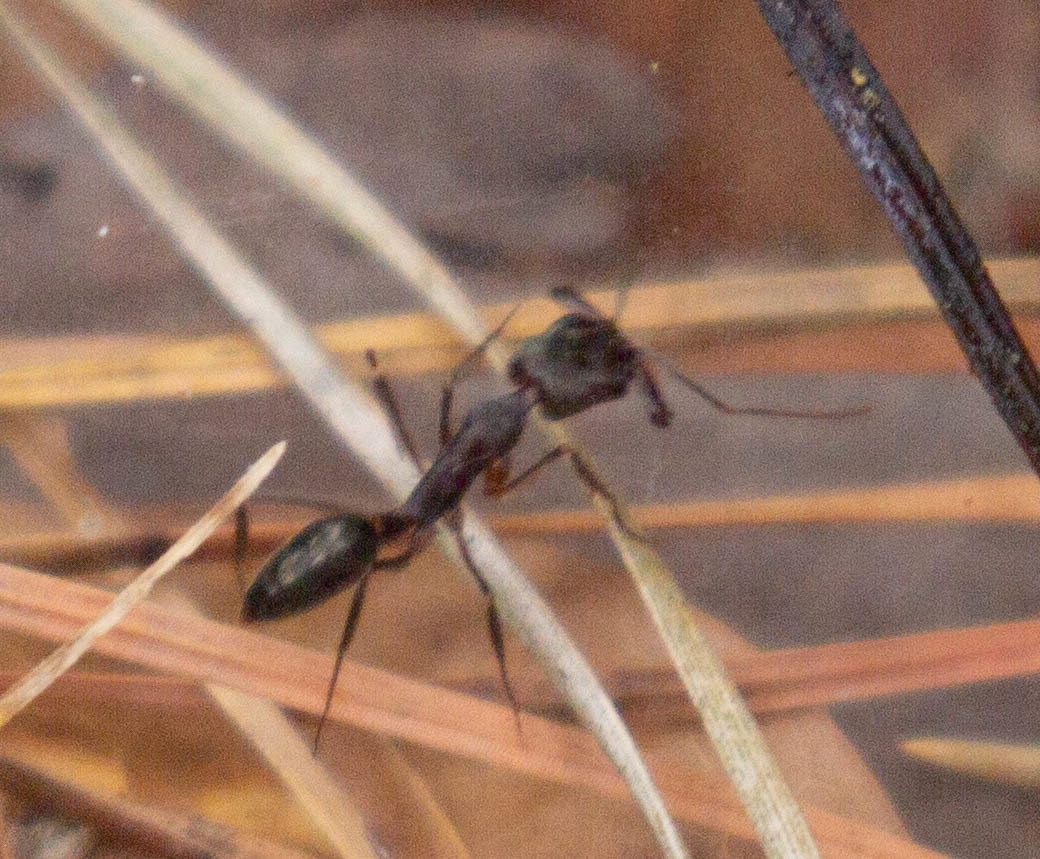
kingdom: Animalia
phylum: Arthropoda
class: Insecta
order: Hymenoptera
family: Formicidae
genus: Odontomachus
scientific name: Odontomachus haematodus
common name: Two-spined trapjaw ant
